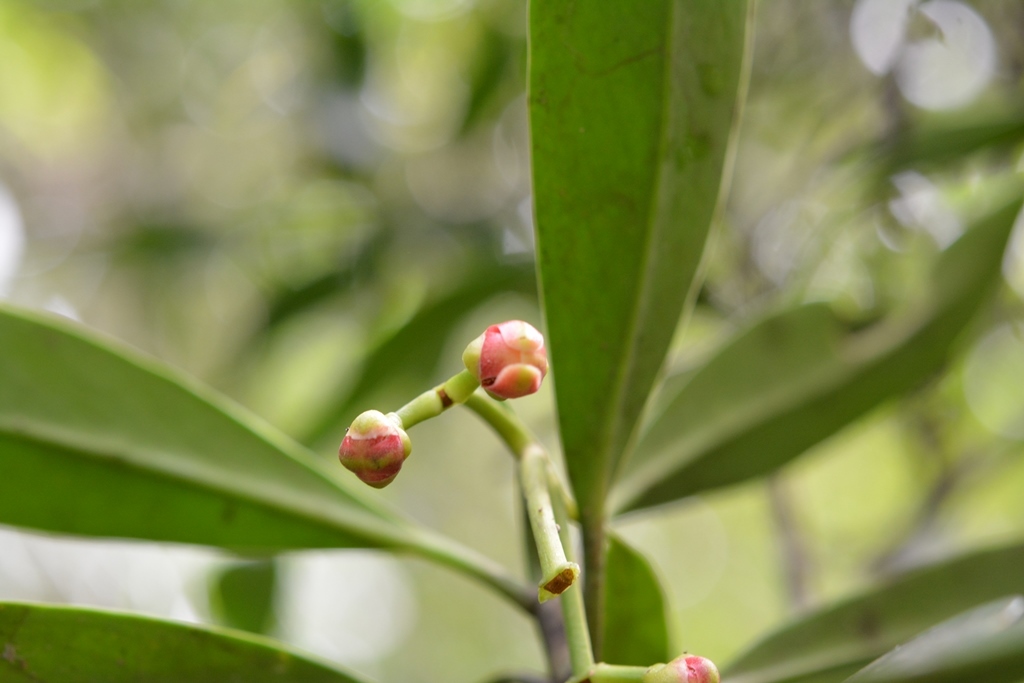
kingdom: Plantae
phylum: Tracheophyta
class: Magnoliopsida
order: Malpighiales
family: Clusiaceae
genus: Clusia
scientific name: Clusia minor
